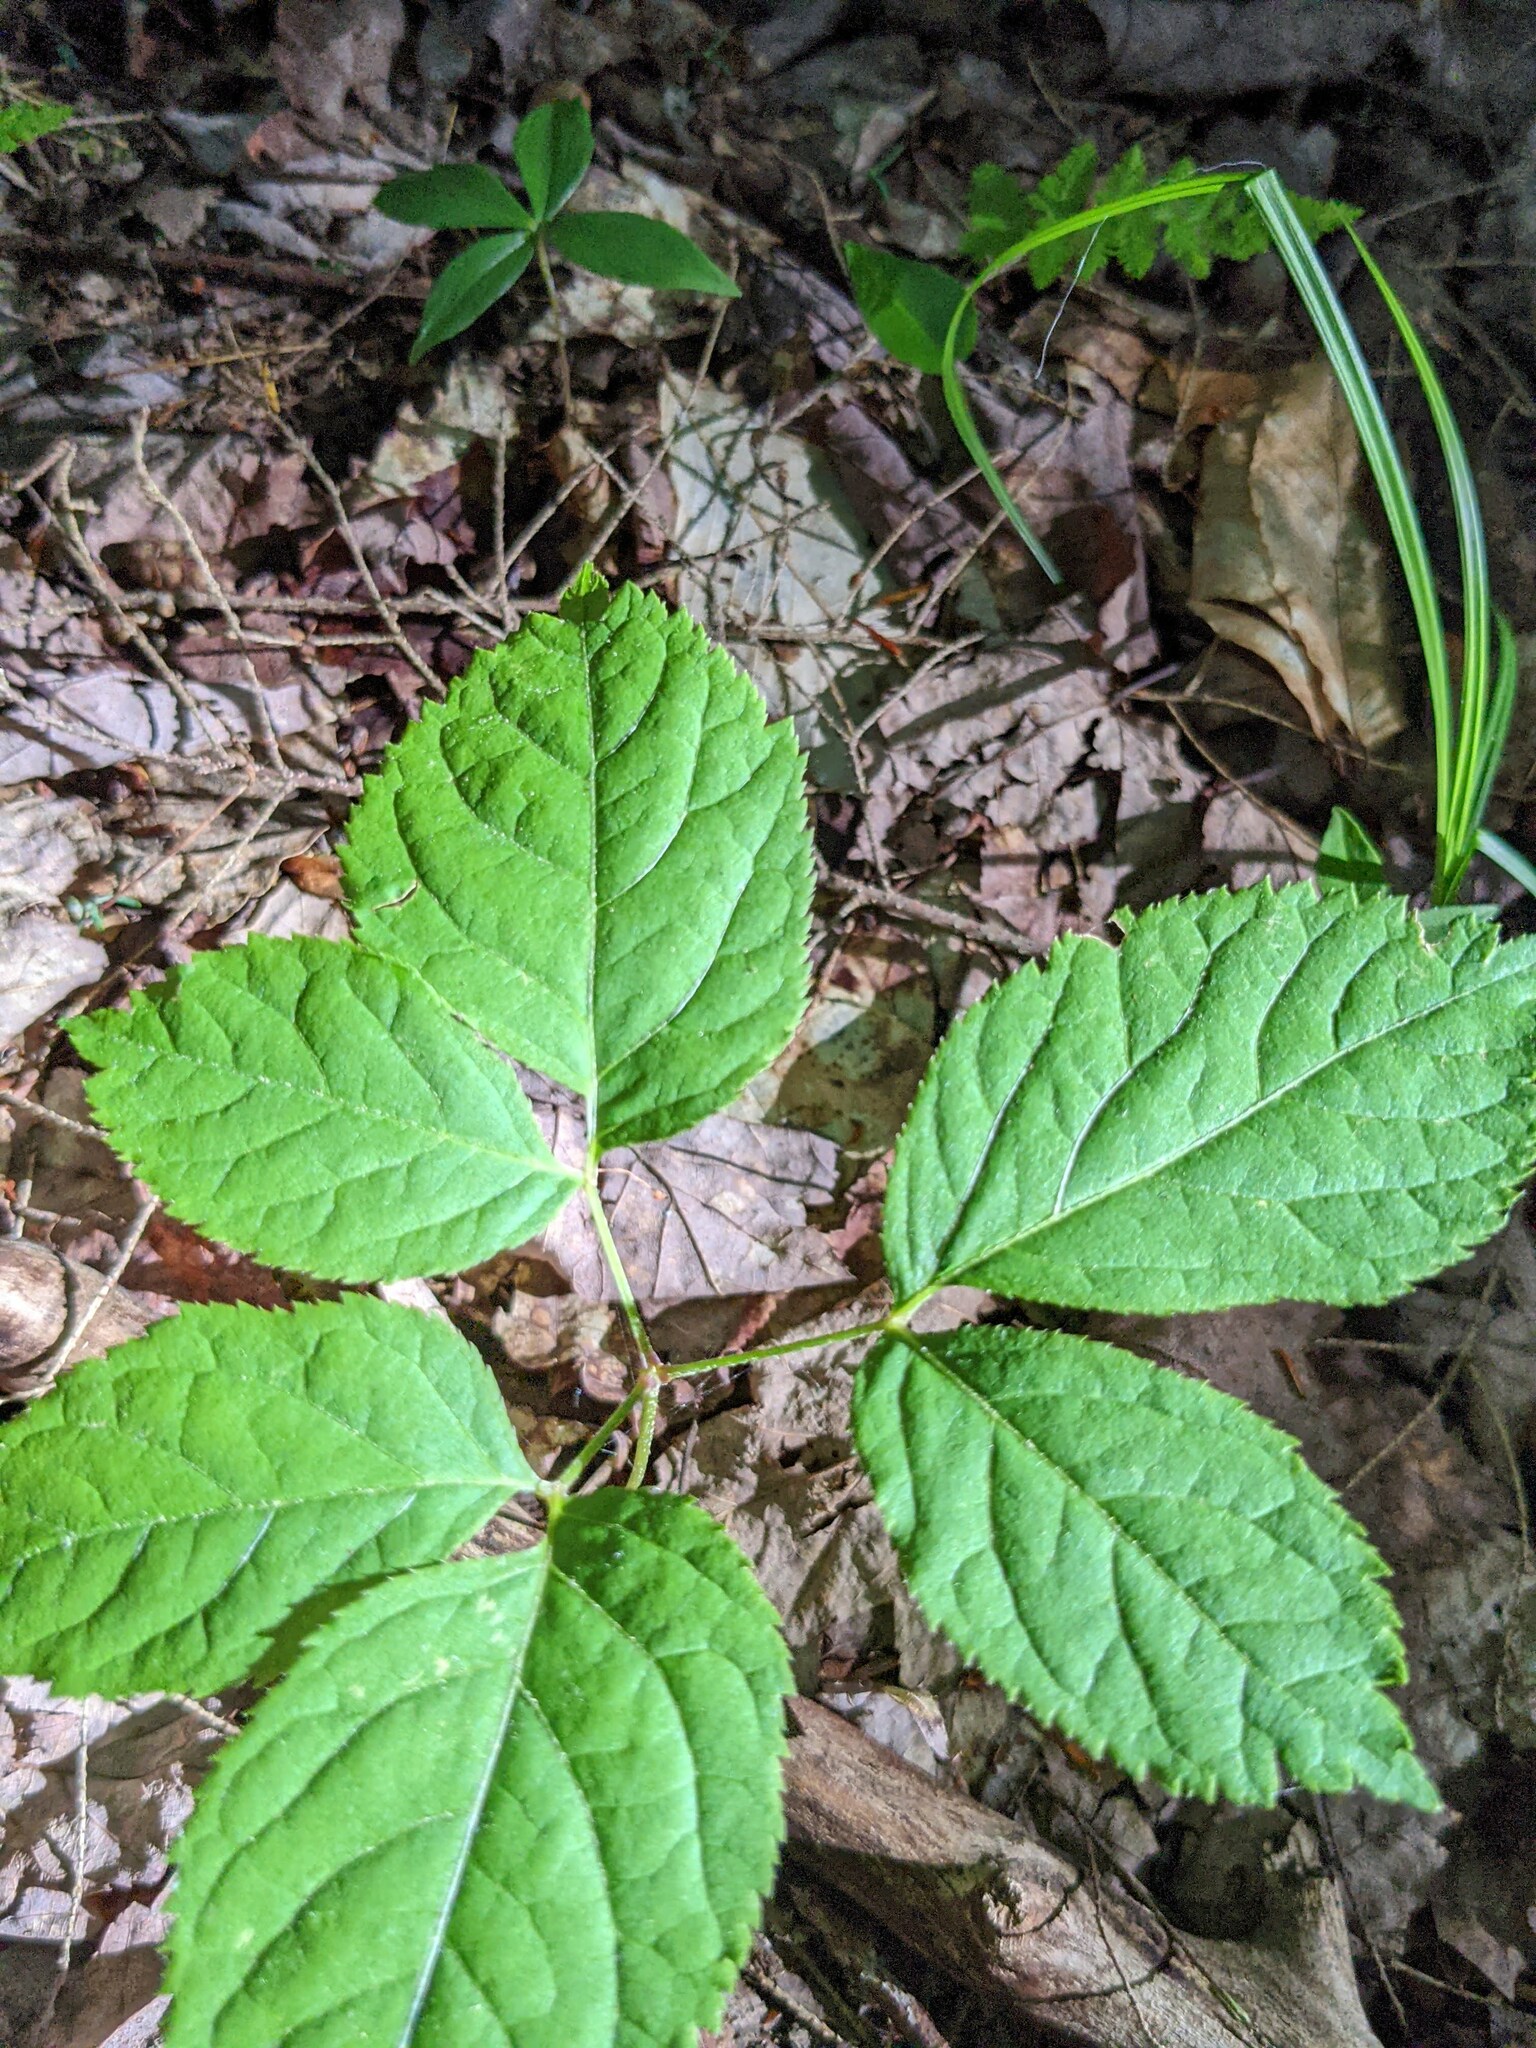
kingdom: Plantae
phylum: Tracheophyta
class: Magnoliopsida
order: Apiales
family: Araliaceae
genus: Aralia
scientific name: Aralia nudicaulis
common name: Wild sarsaparilla
